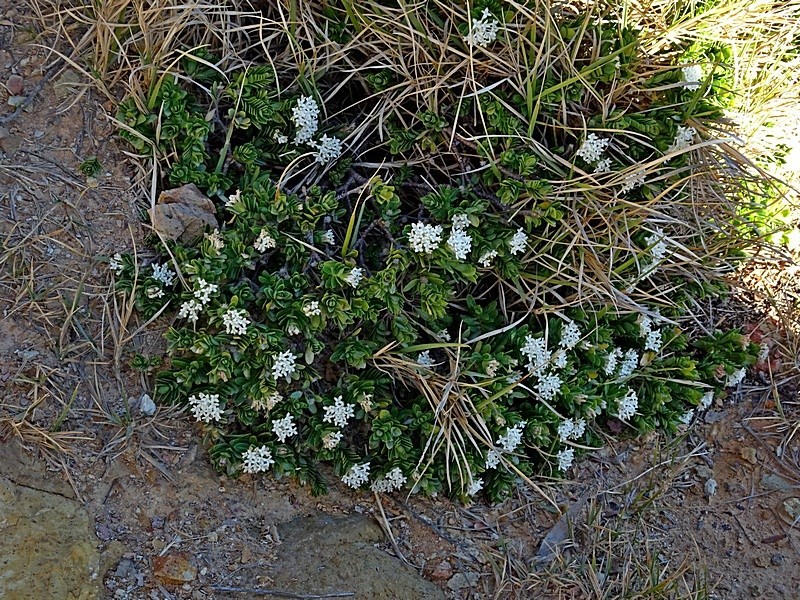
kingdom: Plantae
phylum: Tracheophyta
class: Magnoliopsida
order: Malvales
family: Thymelaeaceae
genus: Pimelea
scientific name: Pimelea linifolia
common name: Queen-of-the-bush
